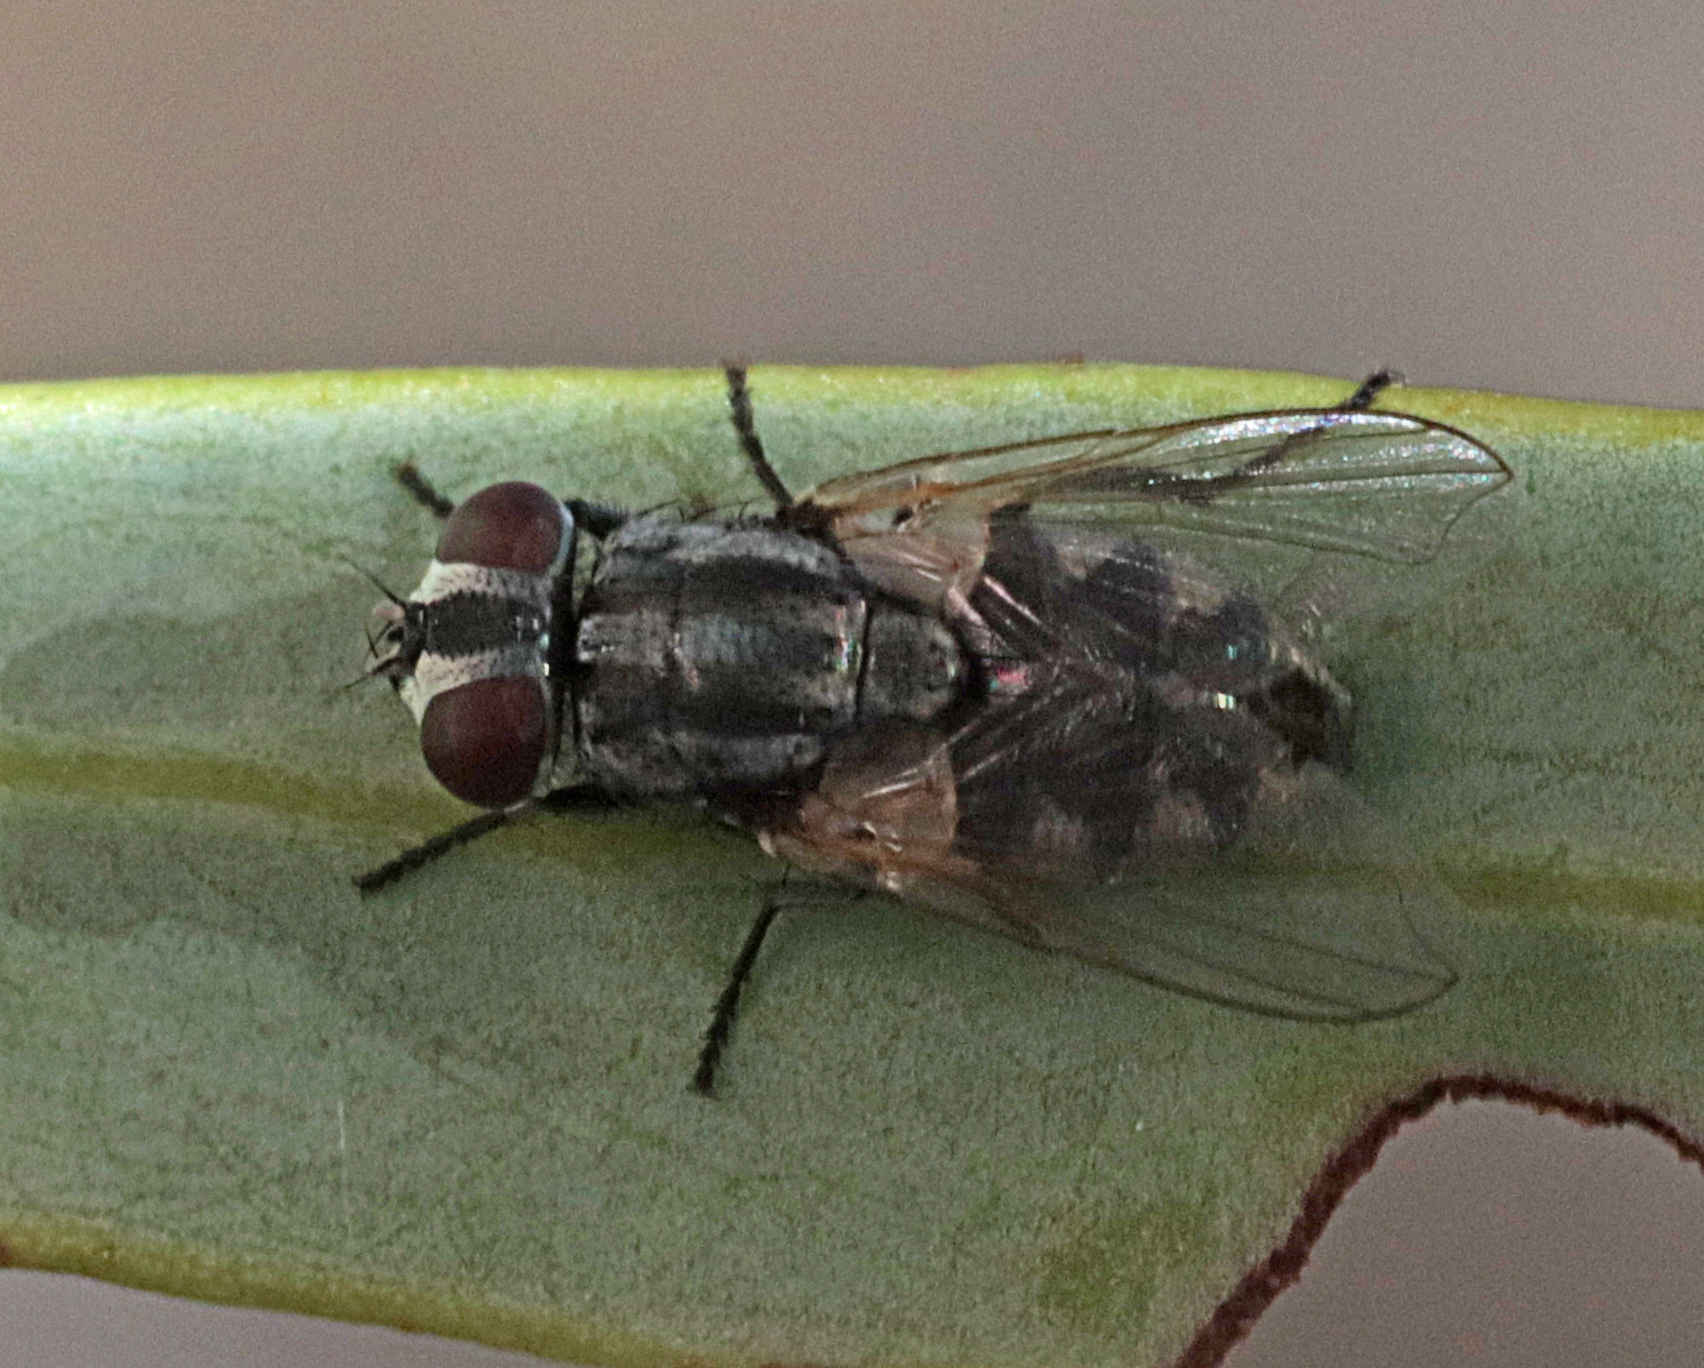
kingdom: Animalia
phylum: Arthropoda
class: Insecta
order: Diptera
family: Muscidae
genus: Musca
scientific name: Musca vetustissima
